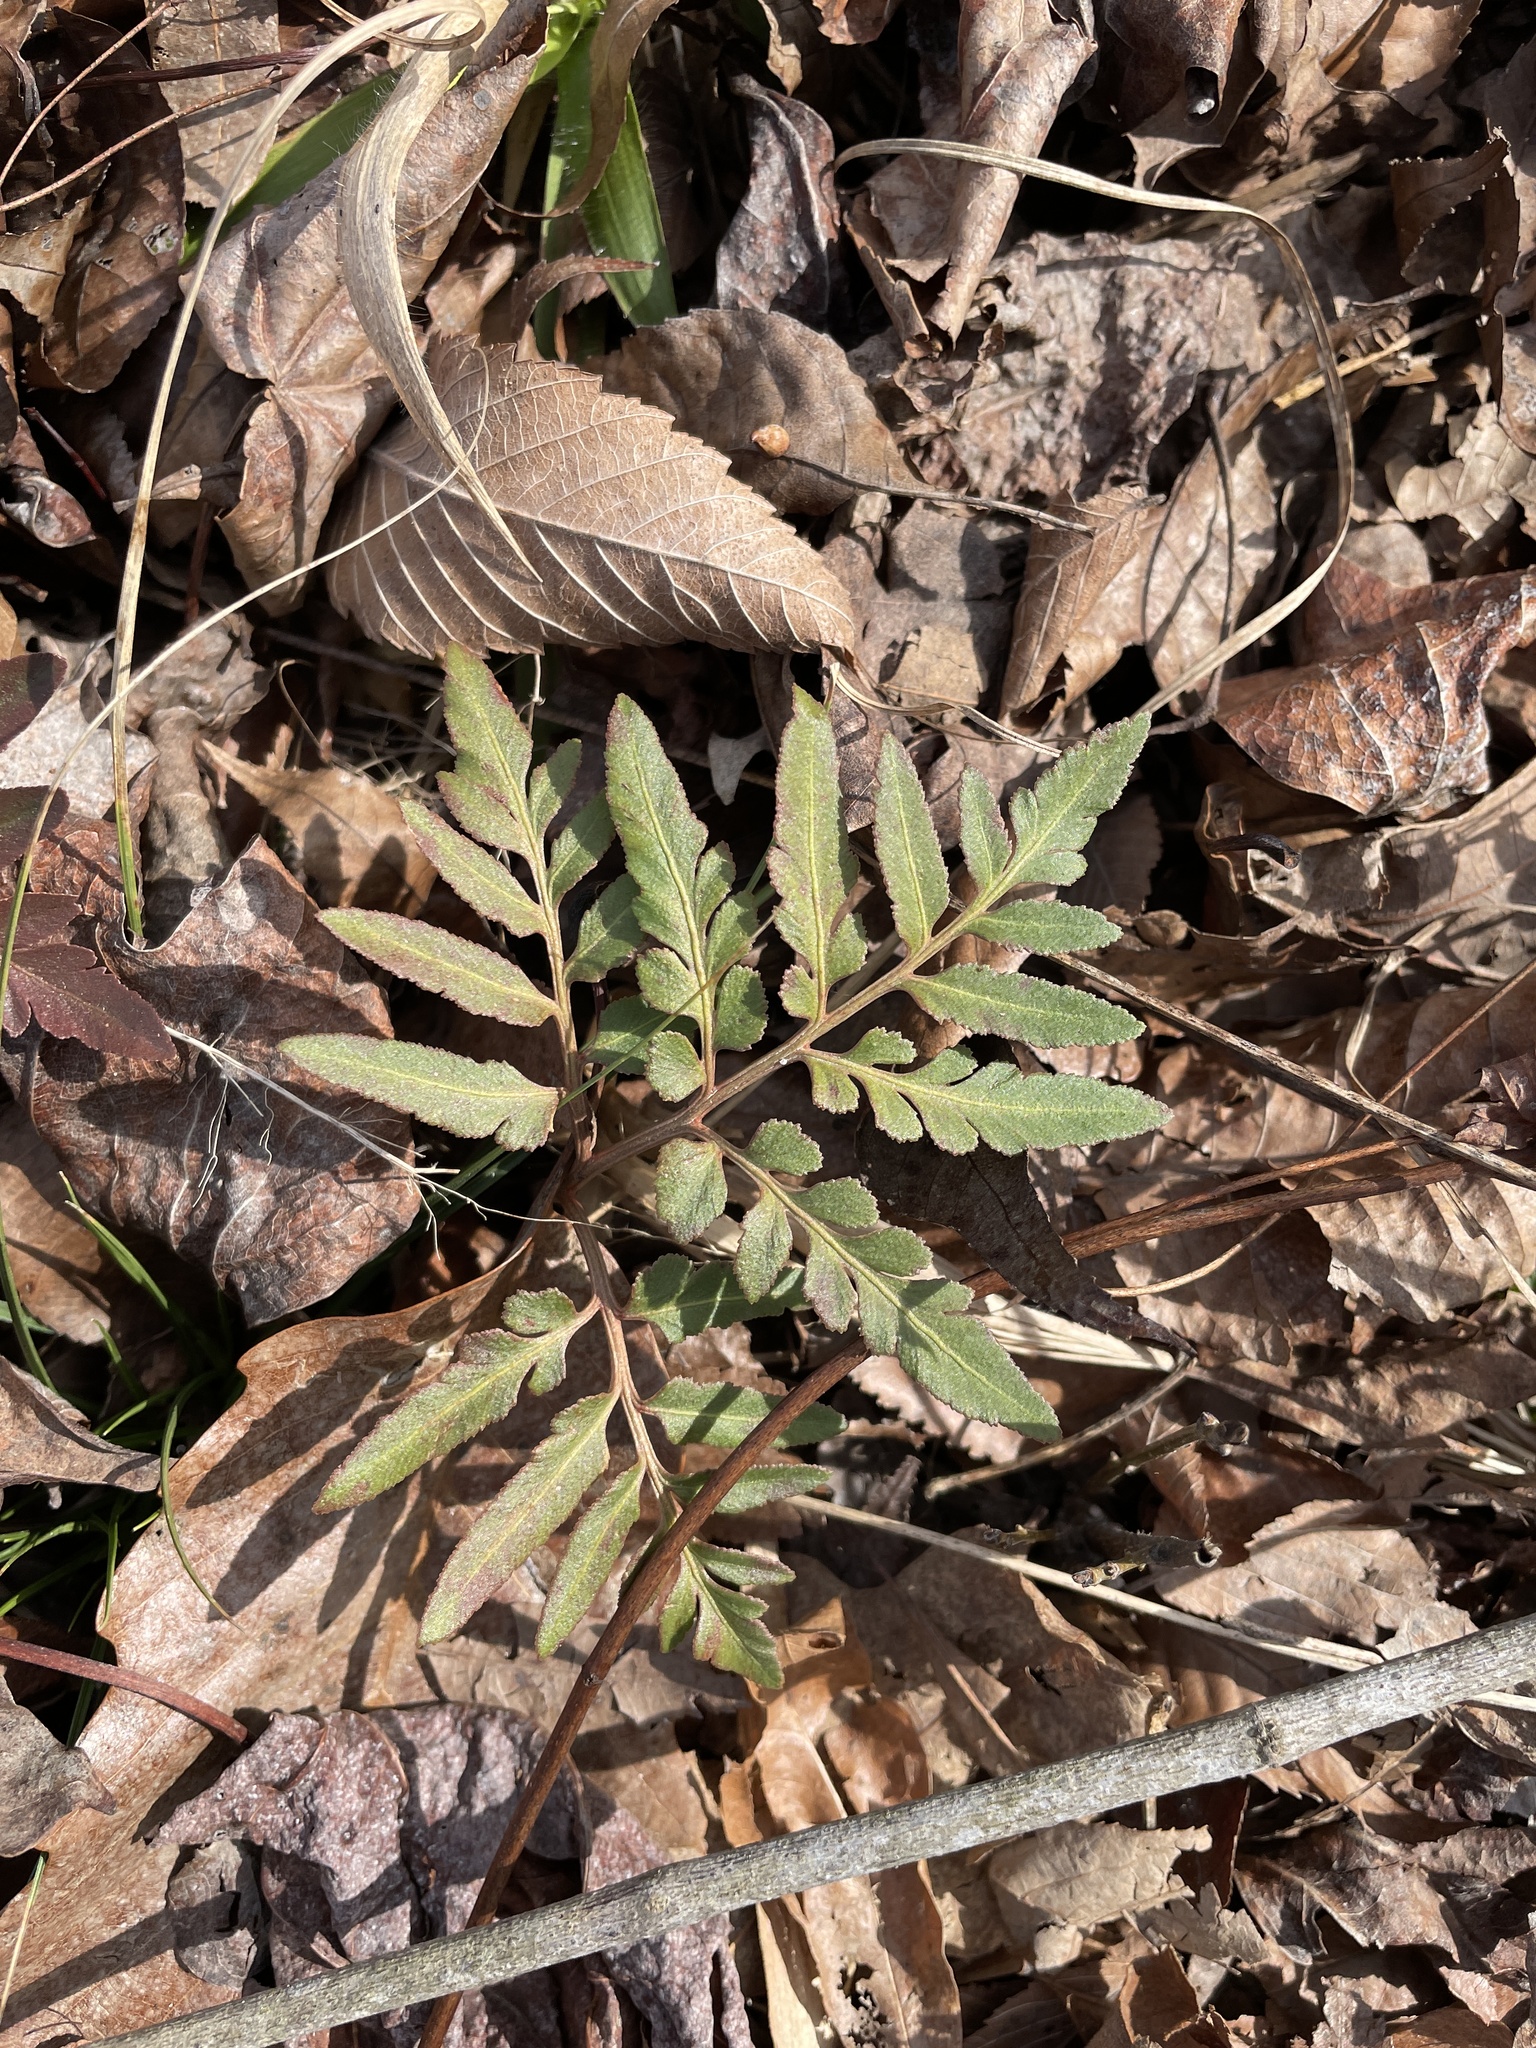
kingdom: Plantae
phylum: Tracheophyta
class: Polypodiopsida
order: Ophioglossales
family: Ophioglossaceae
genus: Sceptridium
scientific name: Sceptridium dissectum
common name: Cut-leaved grapefern
